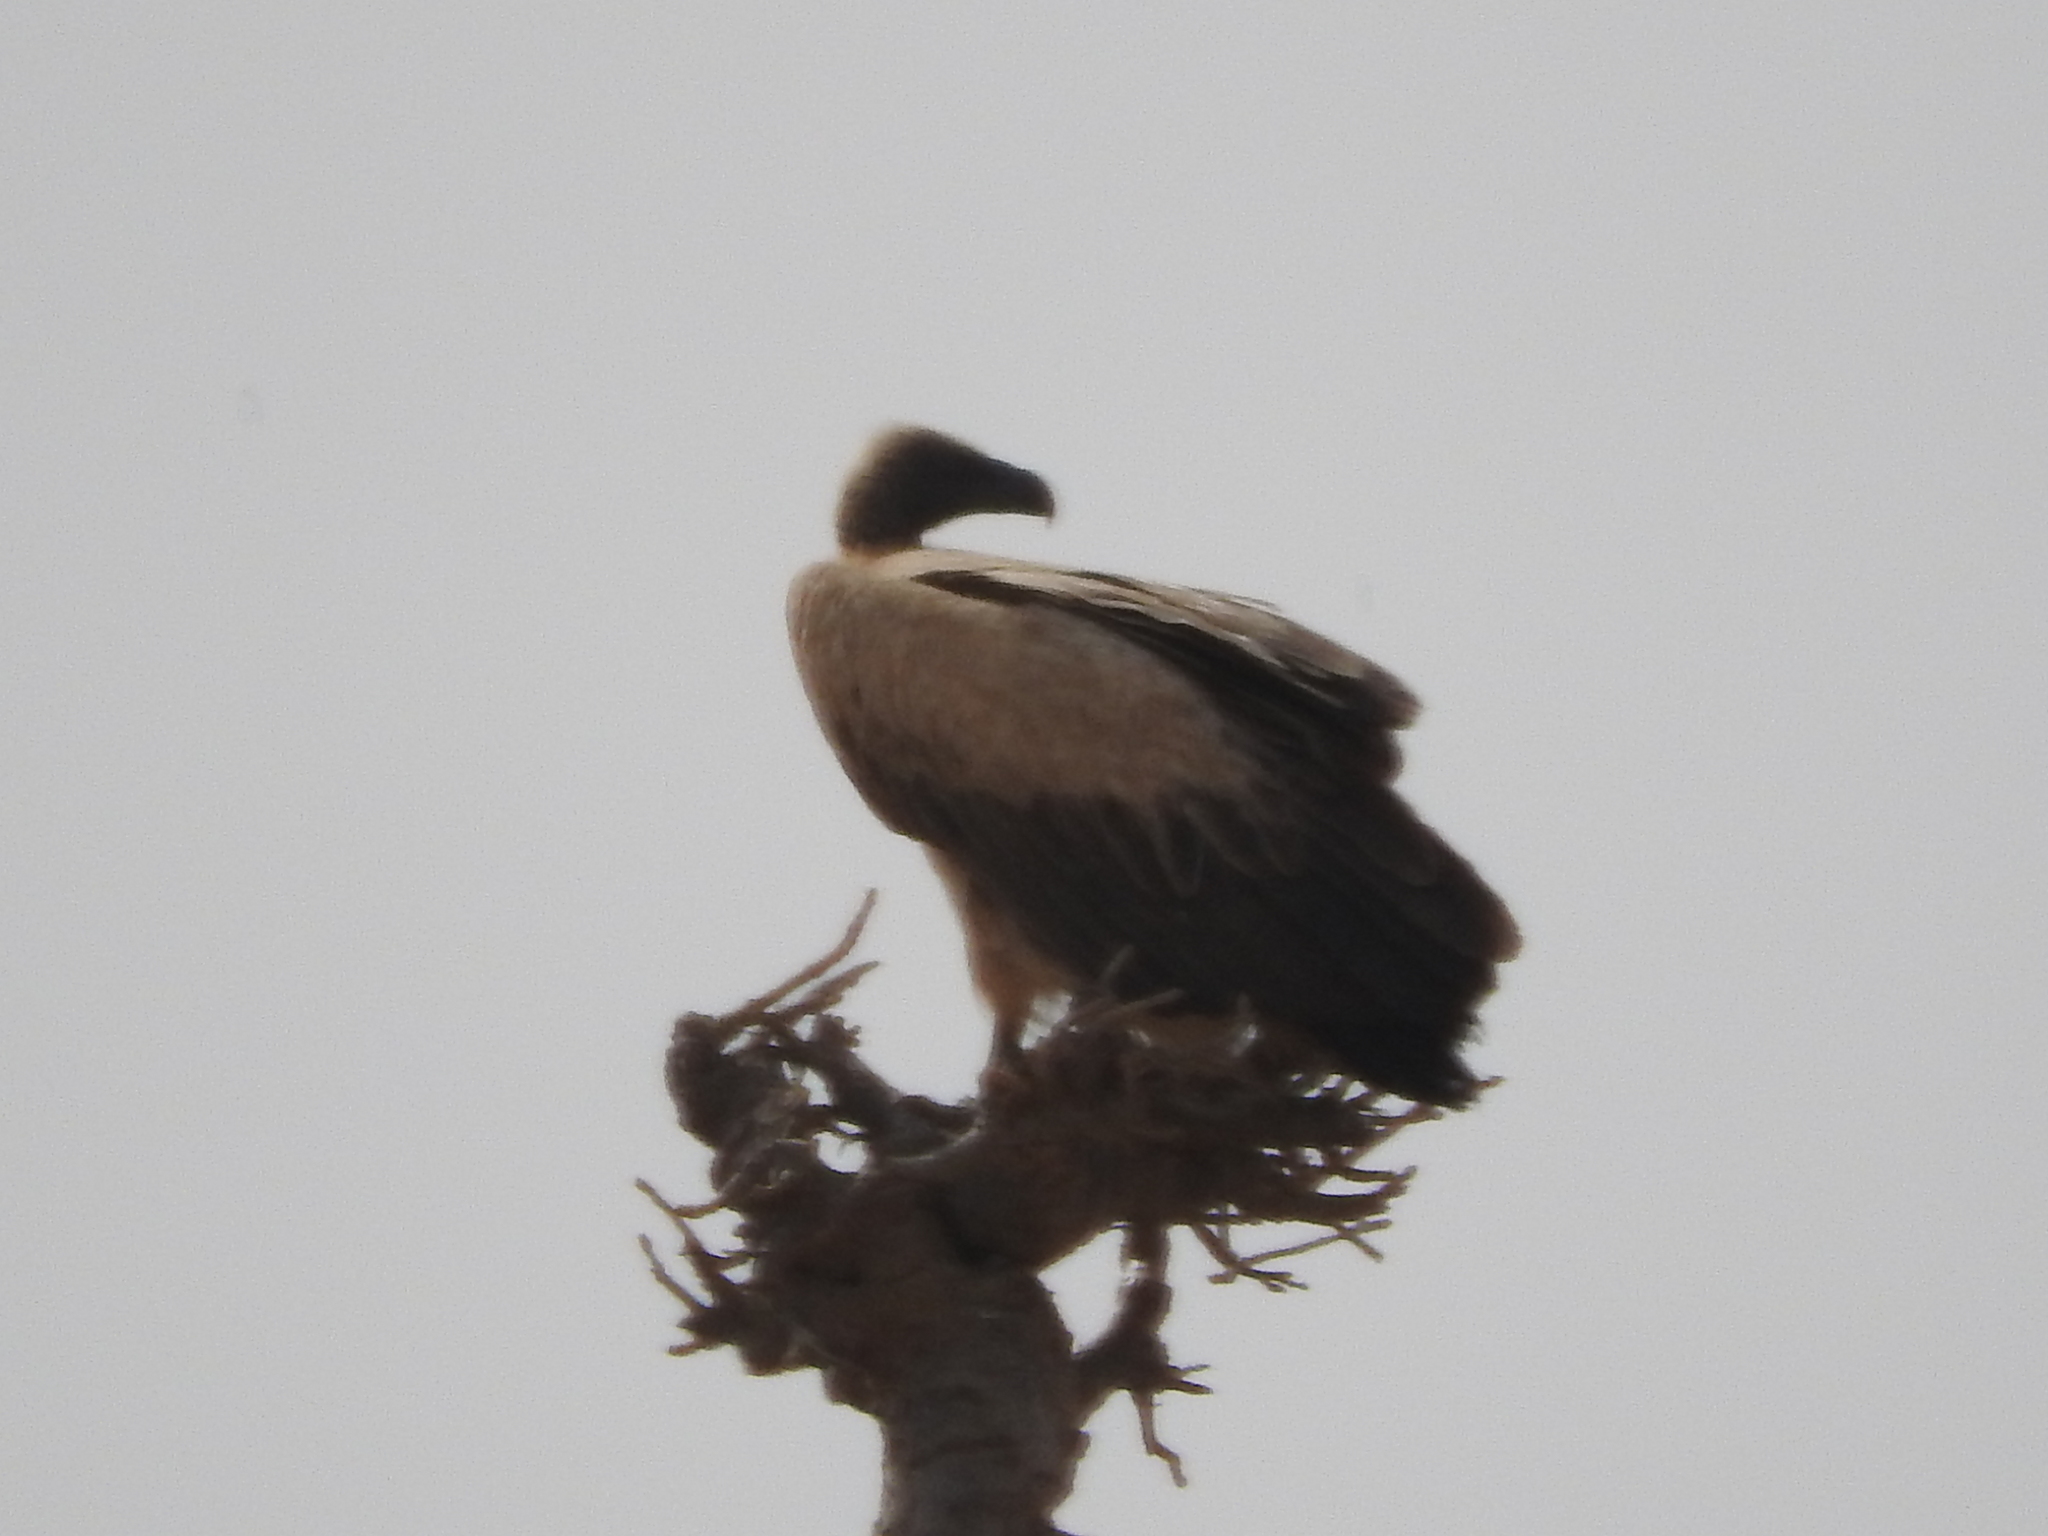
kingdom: Animalia
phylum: Chordata
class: Aves
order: Accipitriformes
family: Accipitridae
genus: Gyps
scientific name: Gyps fulvus
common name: Griffon vulture
